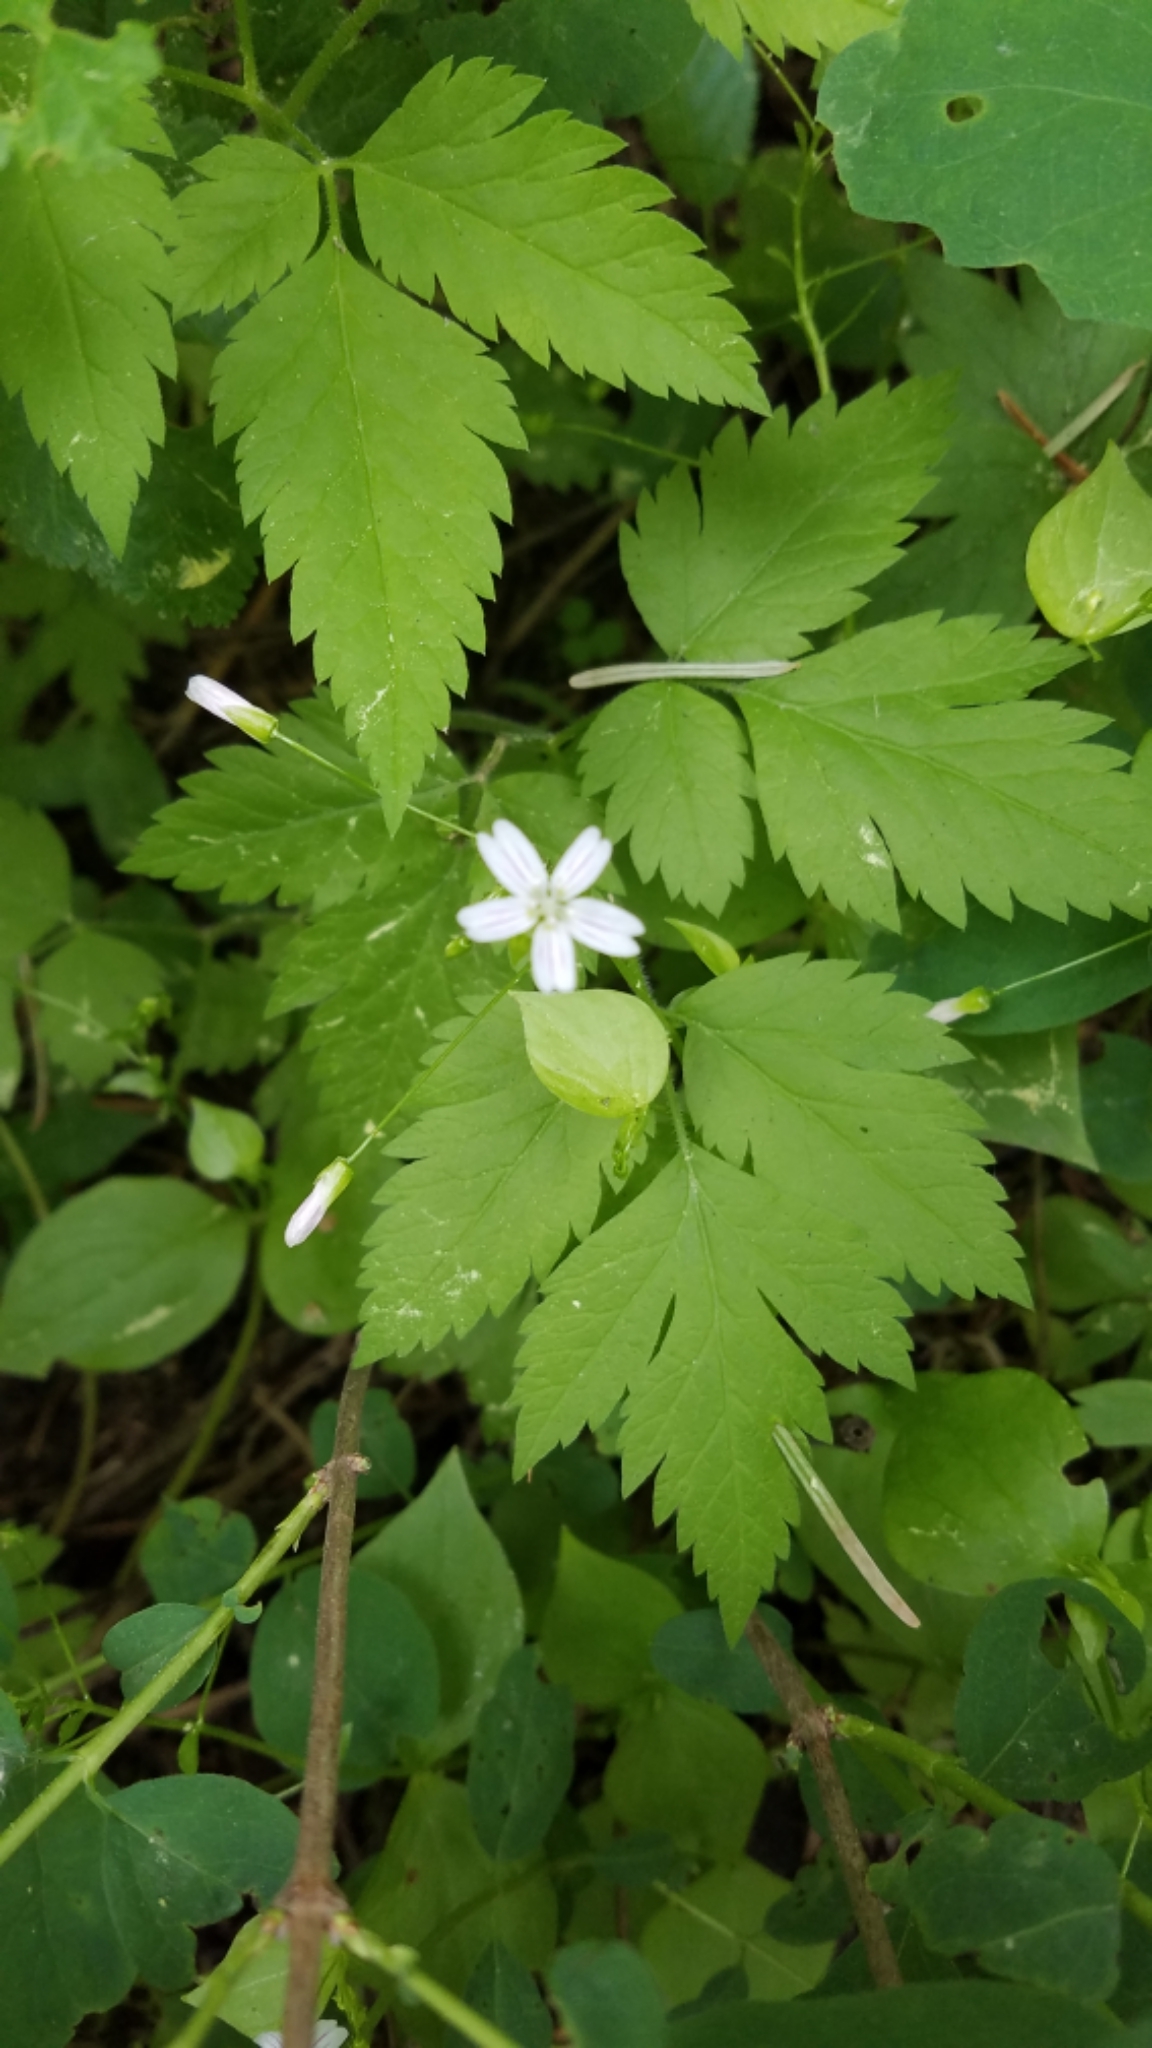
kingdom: Plantae
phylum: Tracheophyta
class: Magnoliopsida
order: Caryophyllales
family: Montiaceae
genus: Claytonia
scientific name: Claytonia sibirica
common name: Pink purslane
